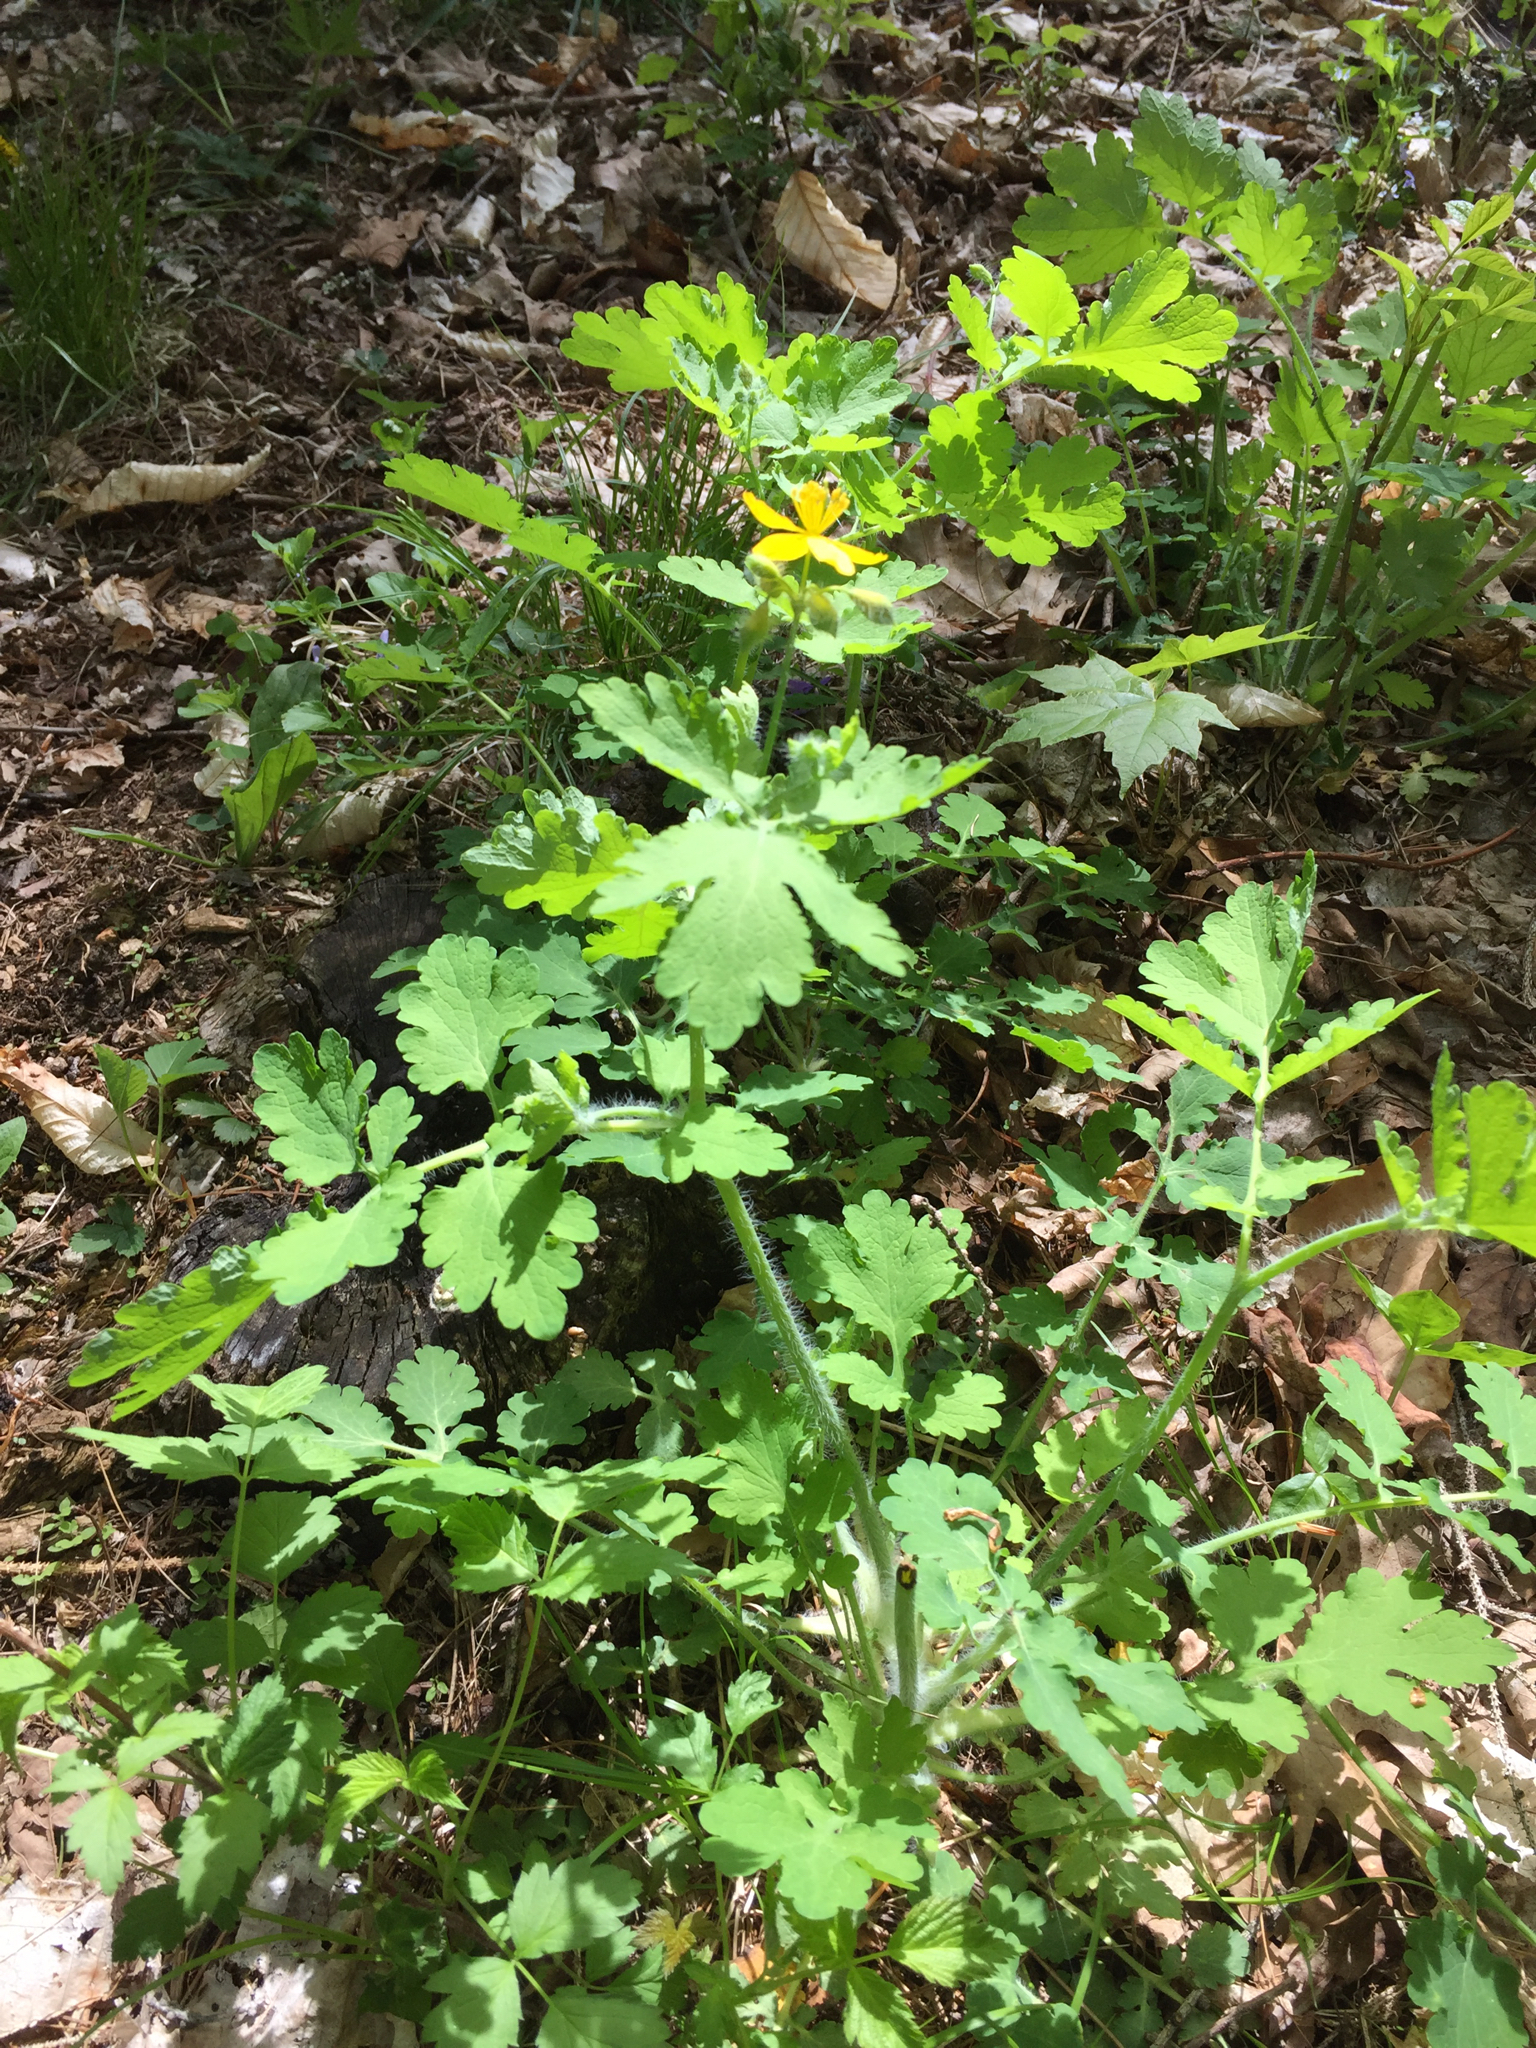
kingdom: Plantae
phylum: Tracheophyta
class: Magnoliopsida
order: Ranunculales
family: Papaveraceae
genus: Chelidonium
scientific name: Chelidonium majus
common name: Greater celandine
